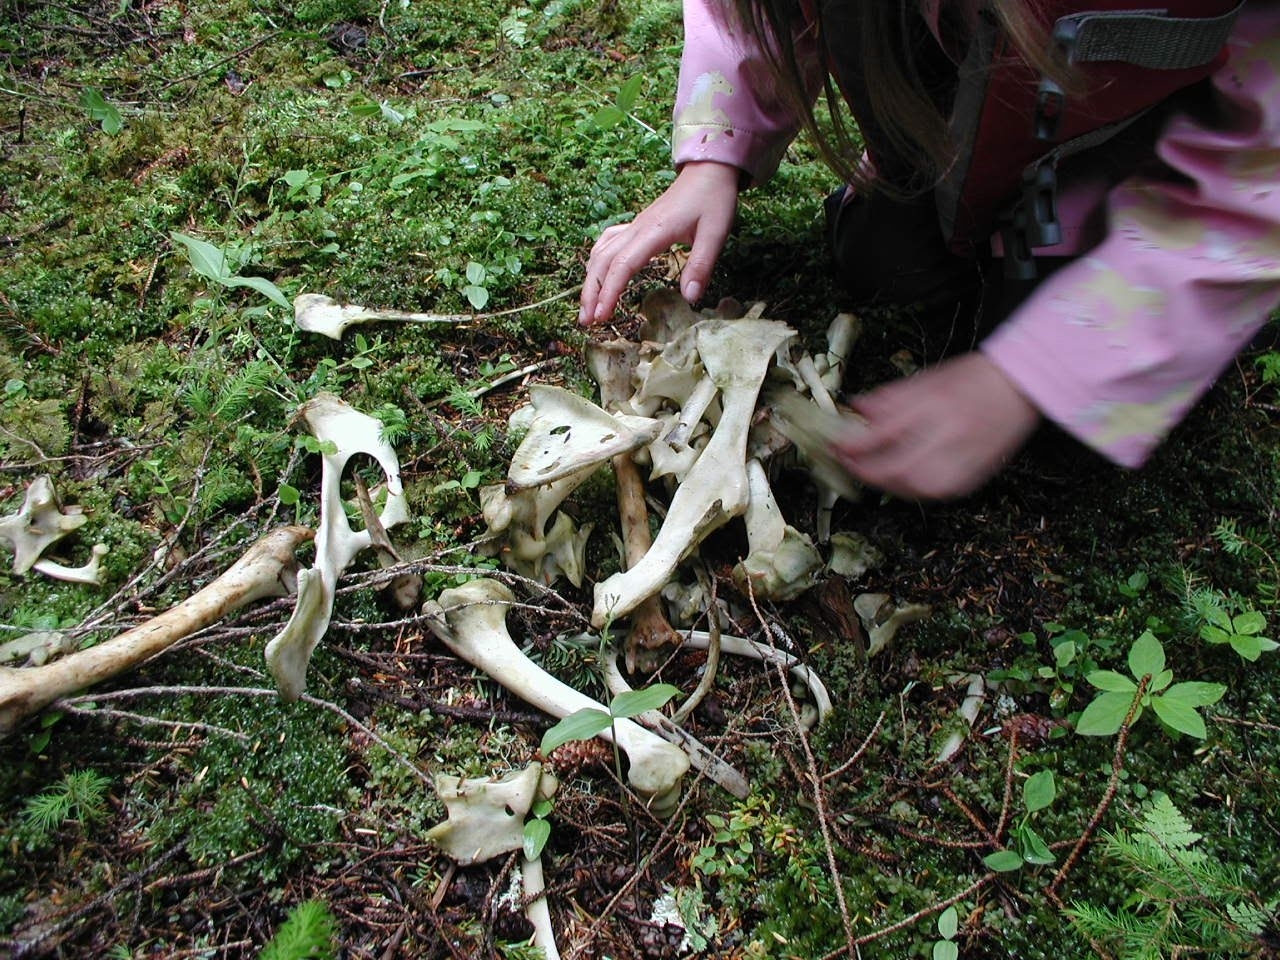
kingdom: Animalia
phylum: Chordata
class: Mammalia
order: Artiodactyla
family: Cervidae
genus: Odocoileus
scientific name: Odocoileus hemionus
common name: Mule deer
